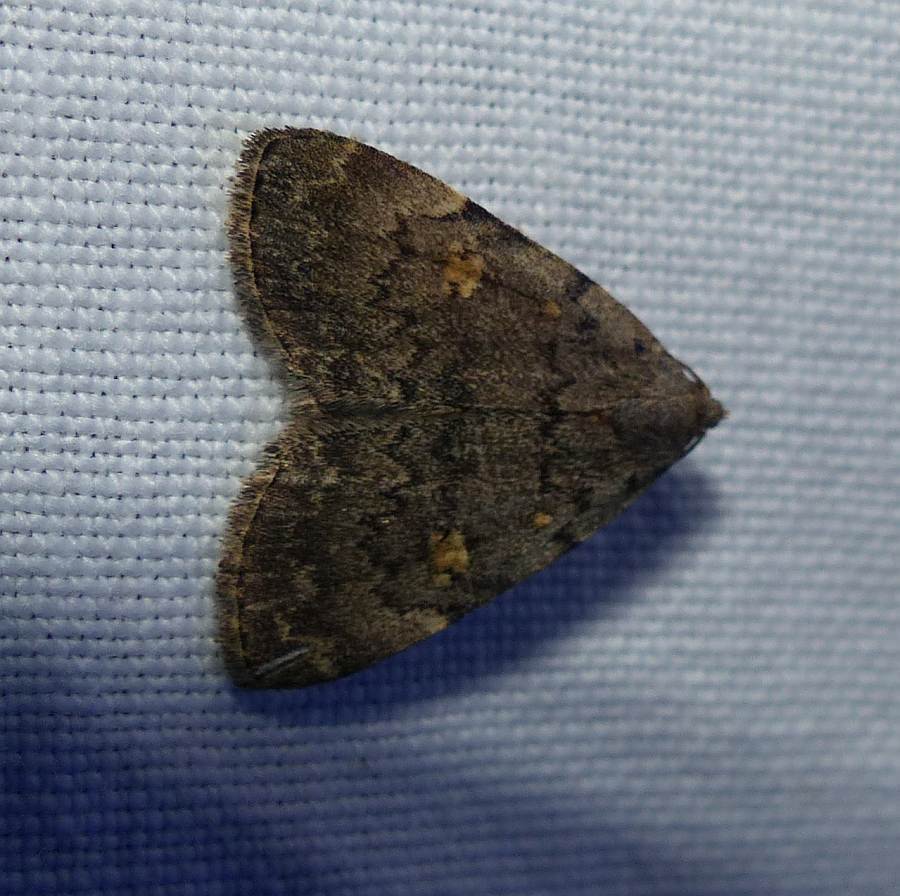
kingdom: Animalia
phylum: Arthropoda
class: Insecta
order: Lepidoptera
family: Erebidae
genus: Idia
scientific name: Idia aemula
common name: Common idia moth
